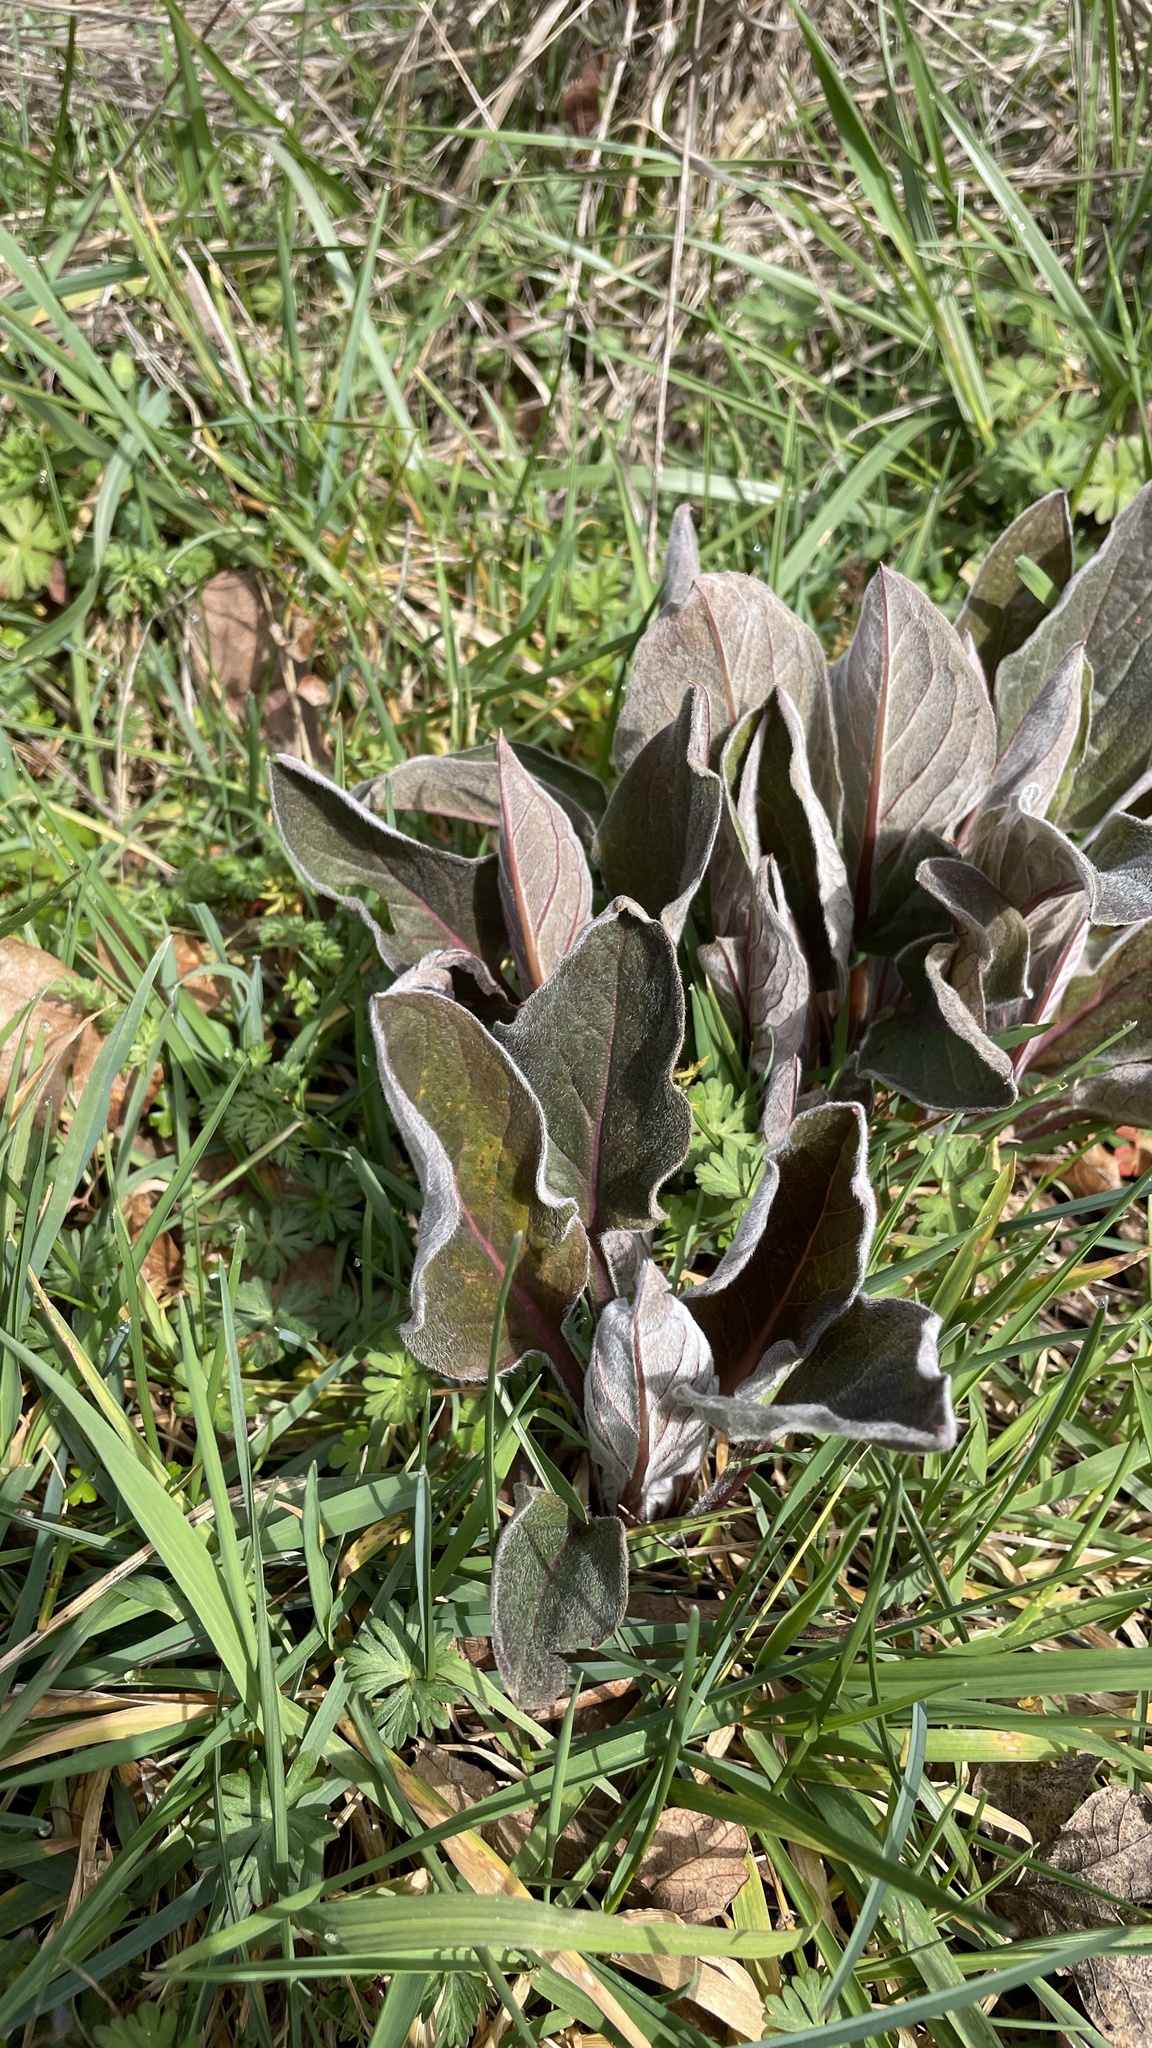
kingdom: Plantae
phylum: Tracheophyta
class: Magnoliopsida
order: Boraginales
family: Boraginaceae
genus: Adelinia
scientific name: Adelinia grande
